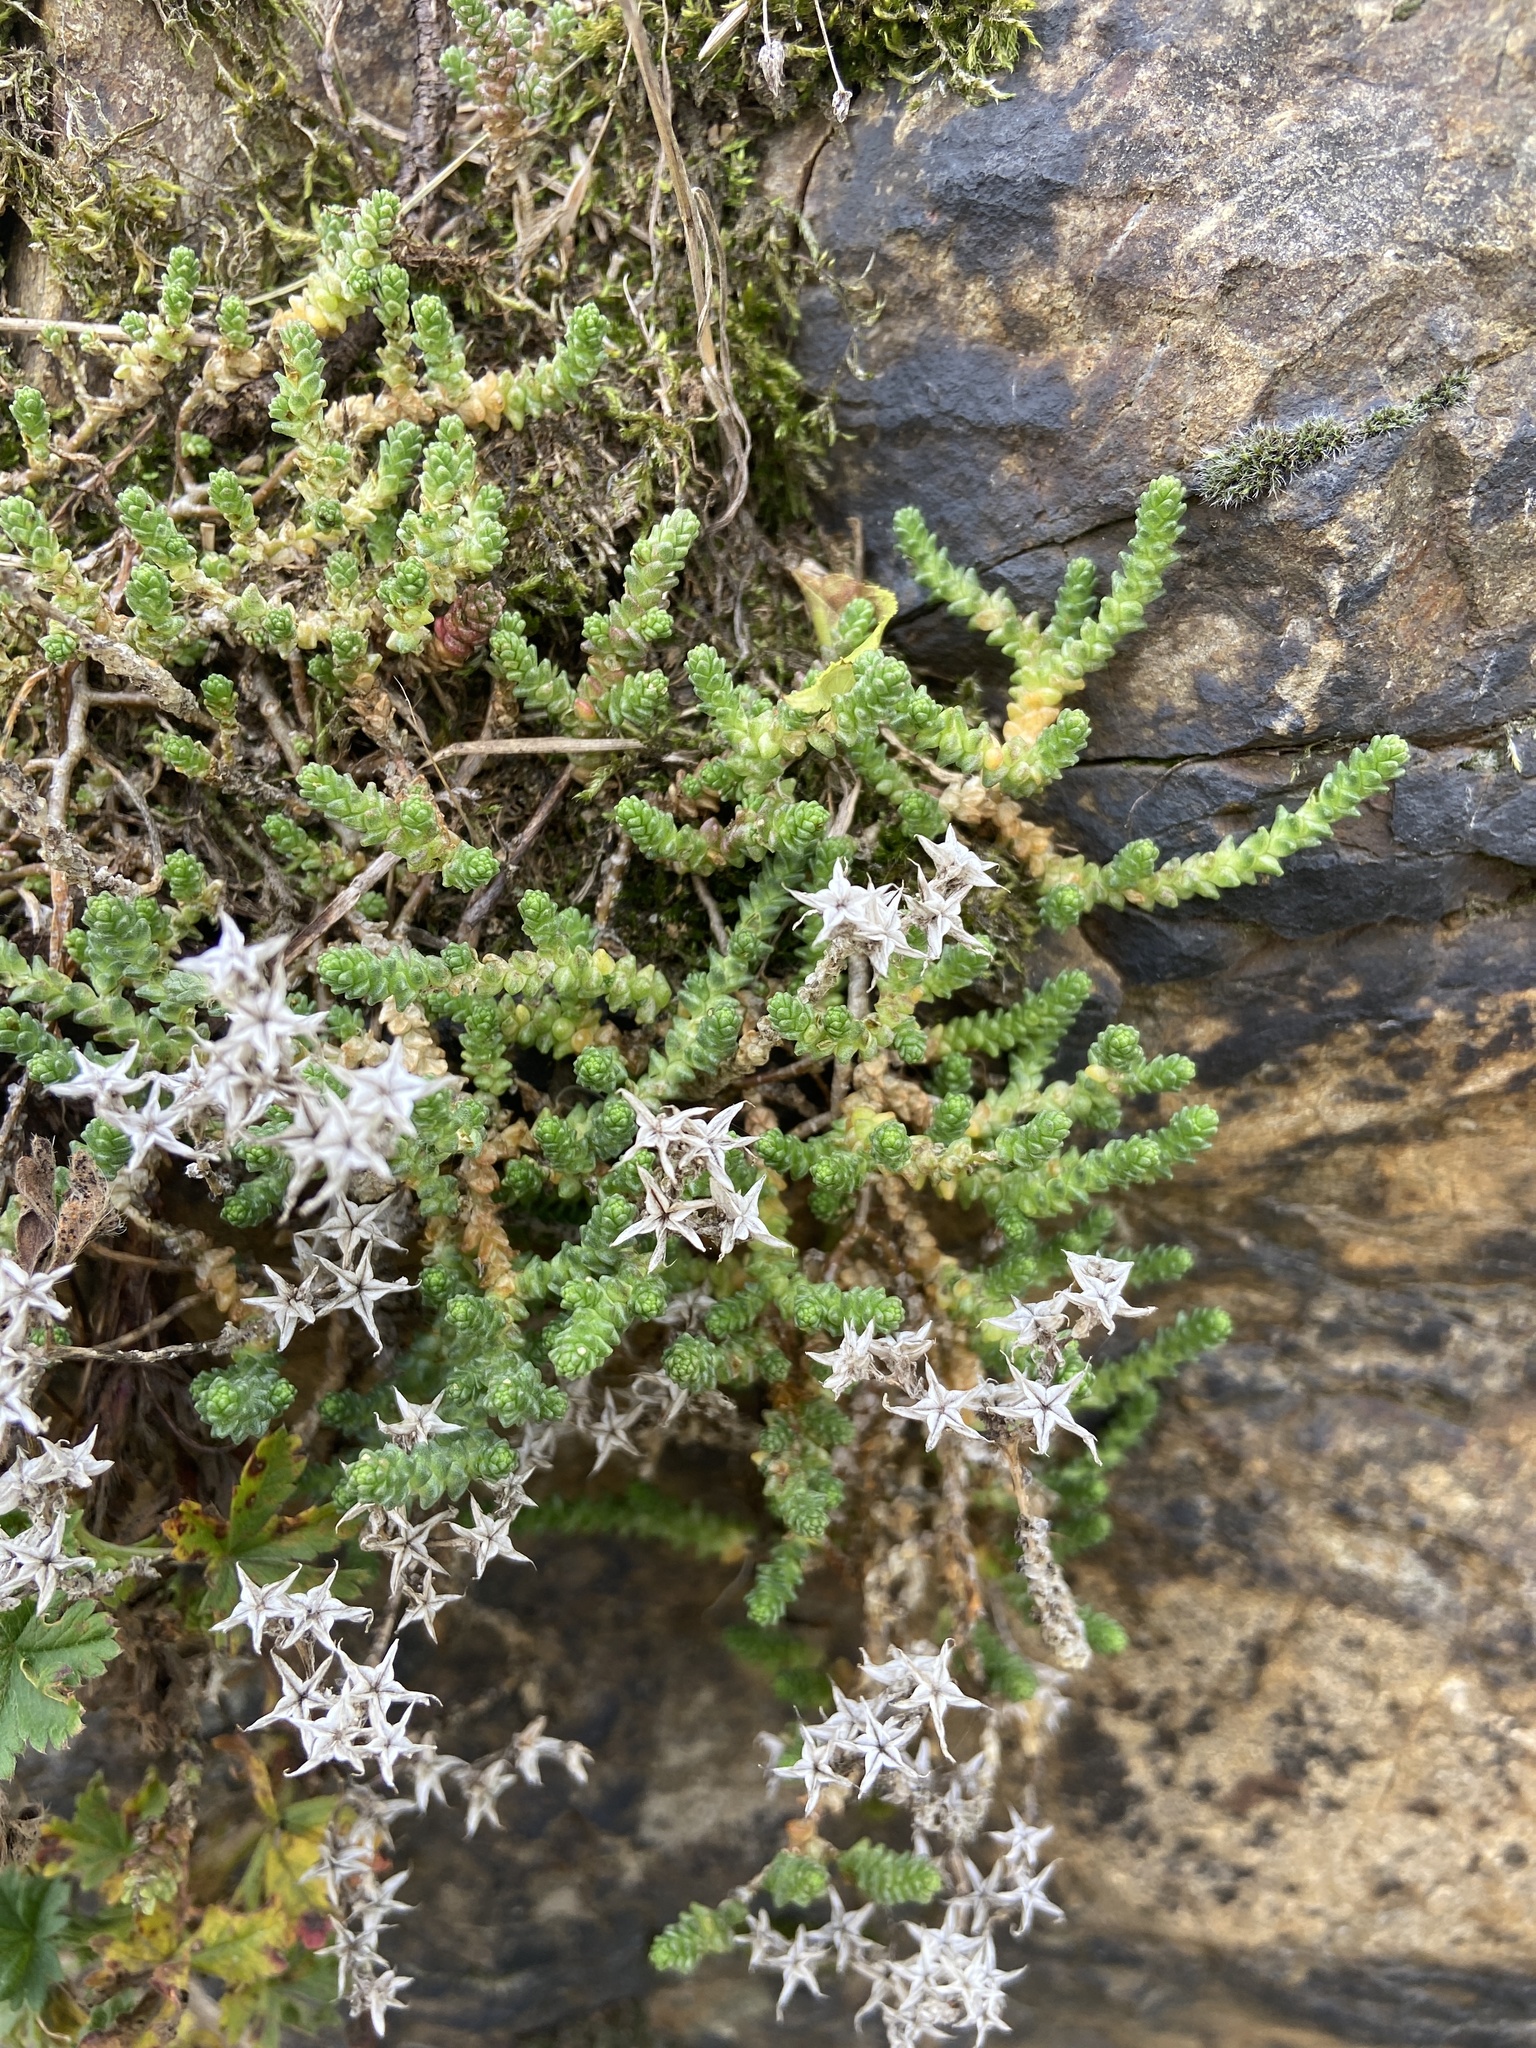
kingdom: Plantae
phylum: Tracheophyta
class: Magnoliopsida
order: Saxifragales
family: Crassulaceae
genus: Sedum
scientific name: Sedum acre
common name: Biting stonecrop
